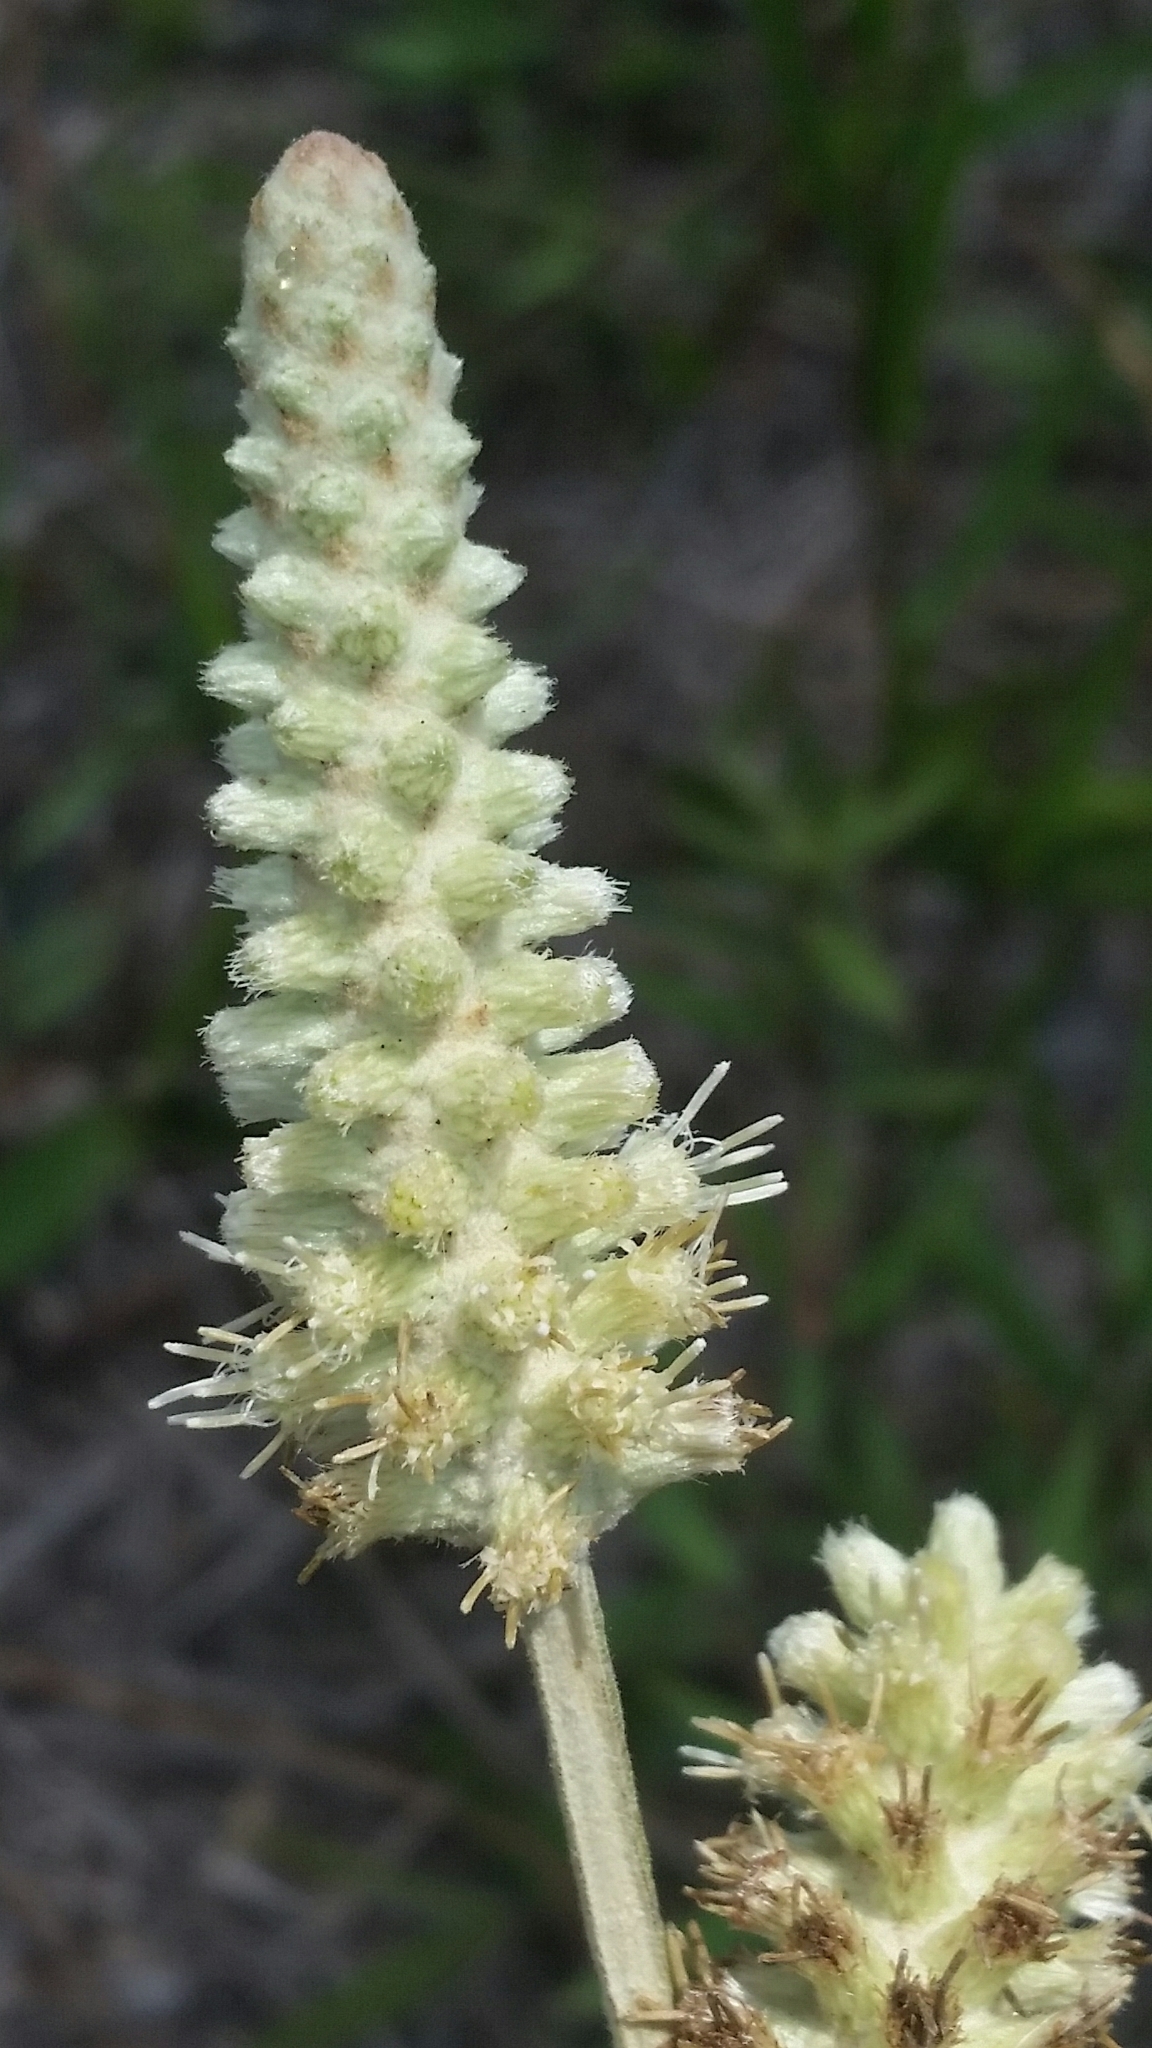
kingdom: Plantae
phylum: Tracheophyta
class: Magnoliopsida
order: Asterales
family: Asteraceae
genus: Pterocaulon
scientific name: Pterocaulon pycnostachyum
